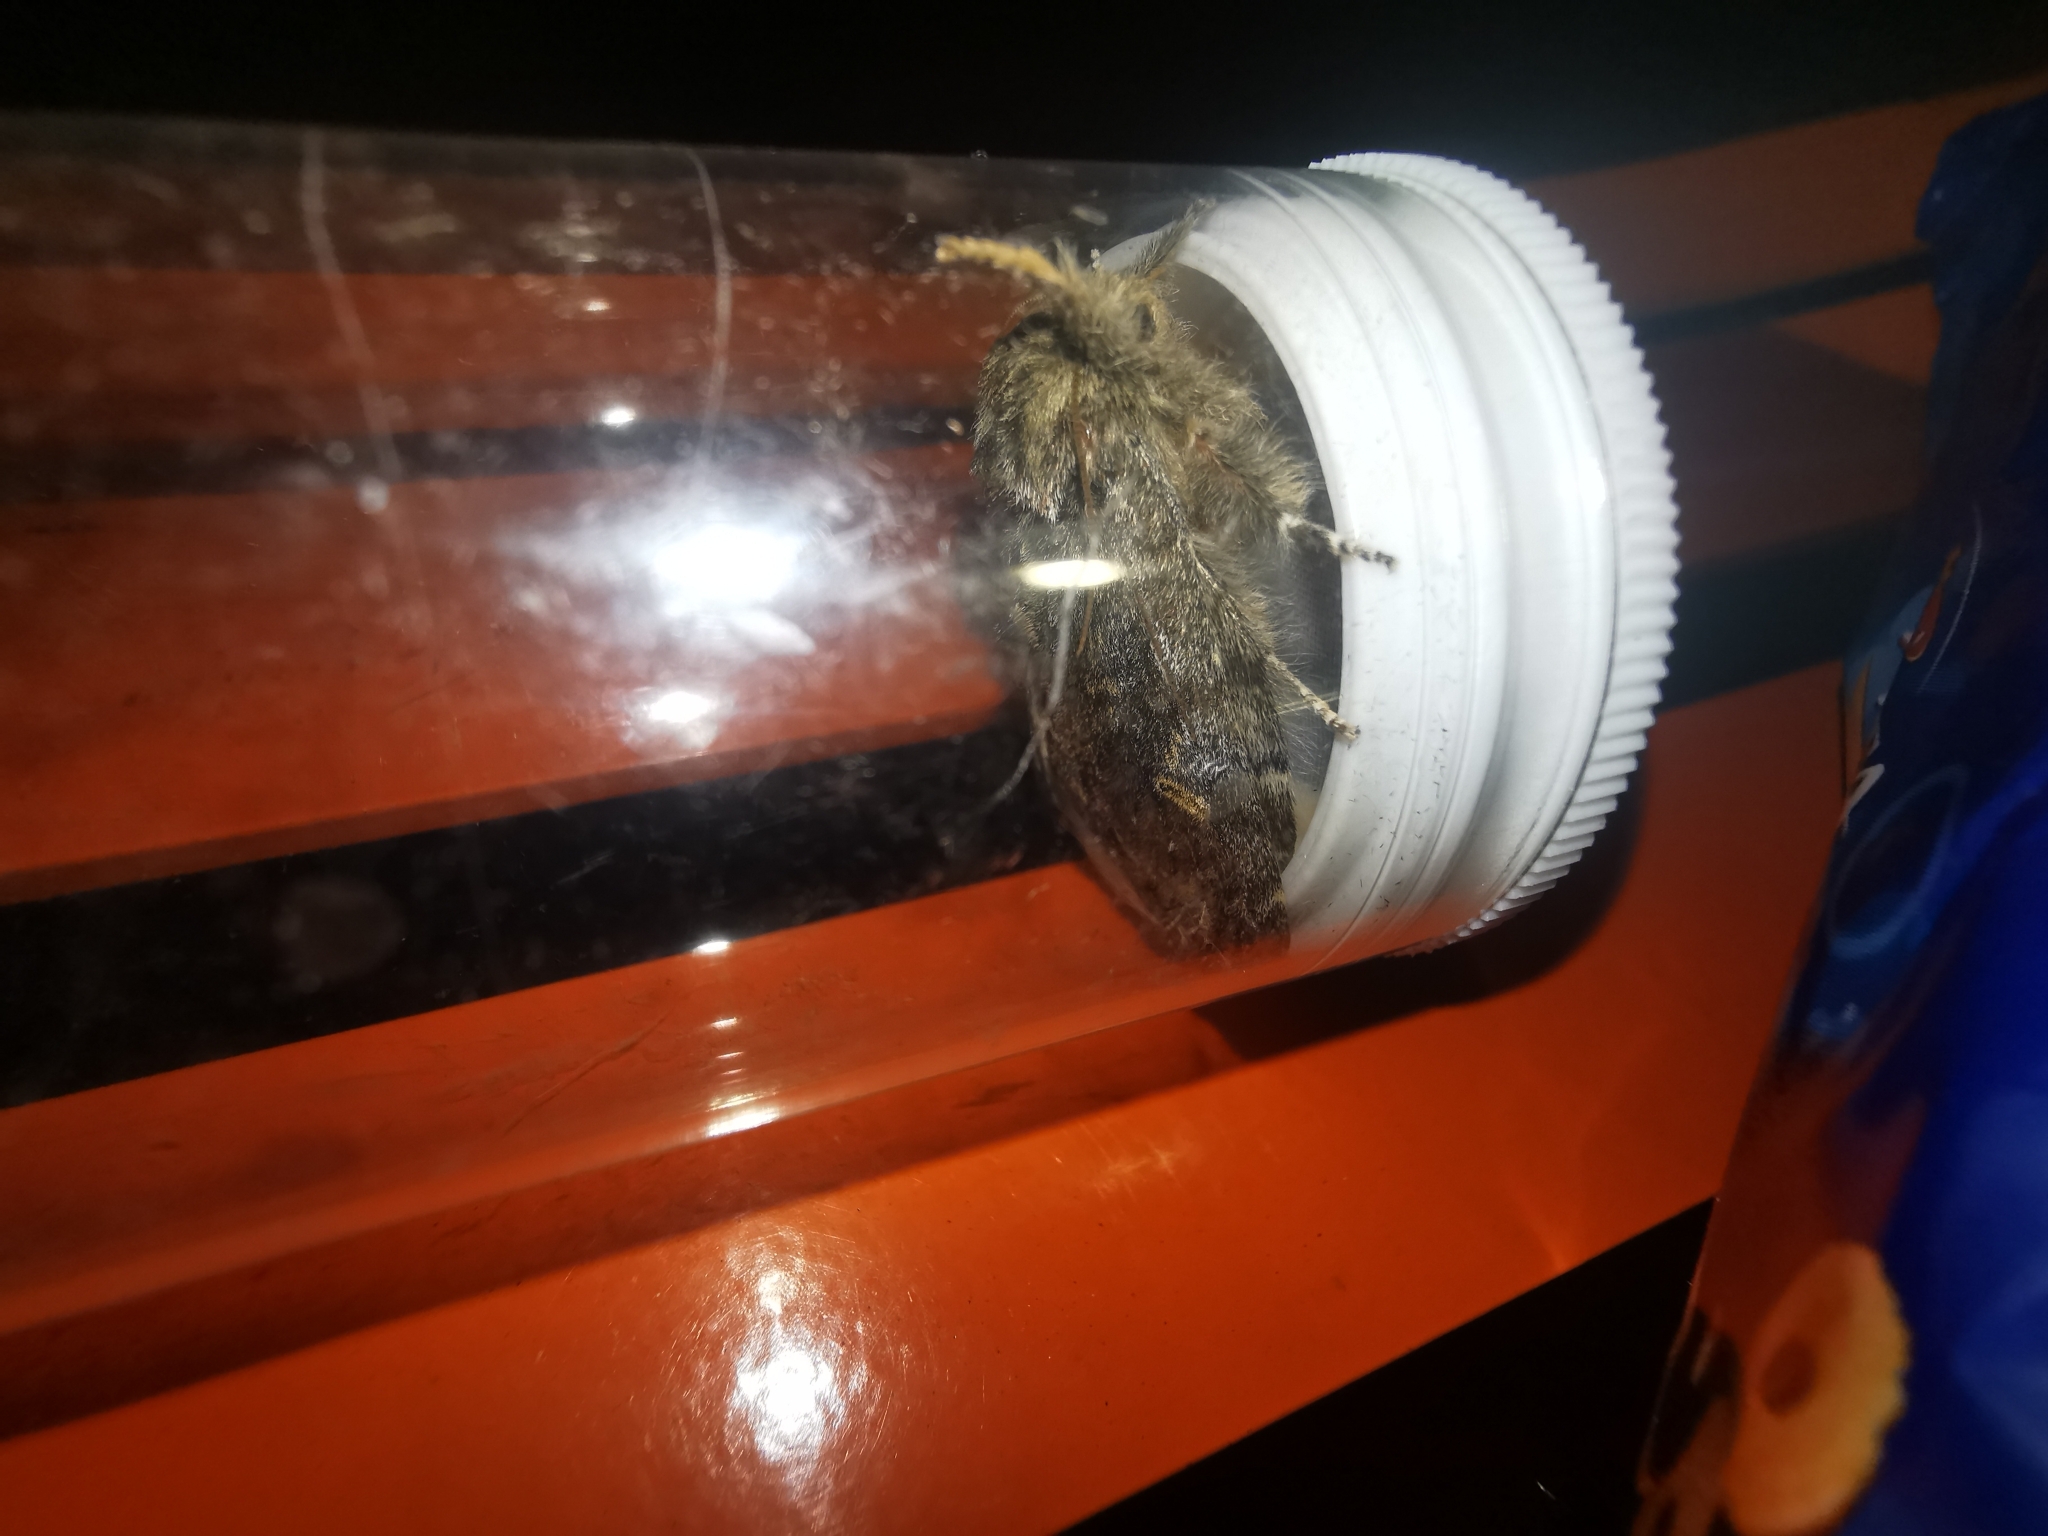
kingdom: Animalia
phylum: Arthropoda
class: Insecta
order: Lepidoptera
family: Notodontidae
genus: Peridea
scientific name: Peridea anceps
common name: Great prominent
